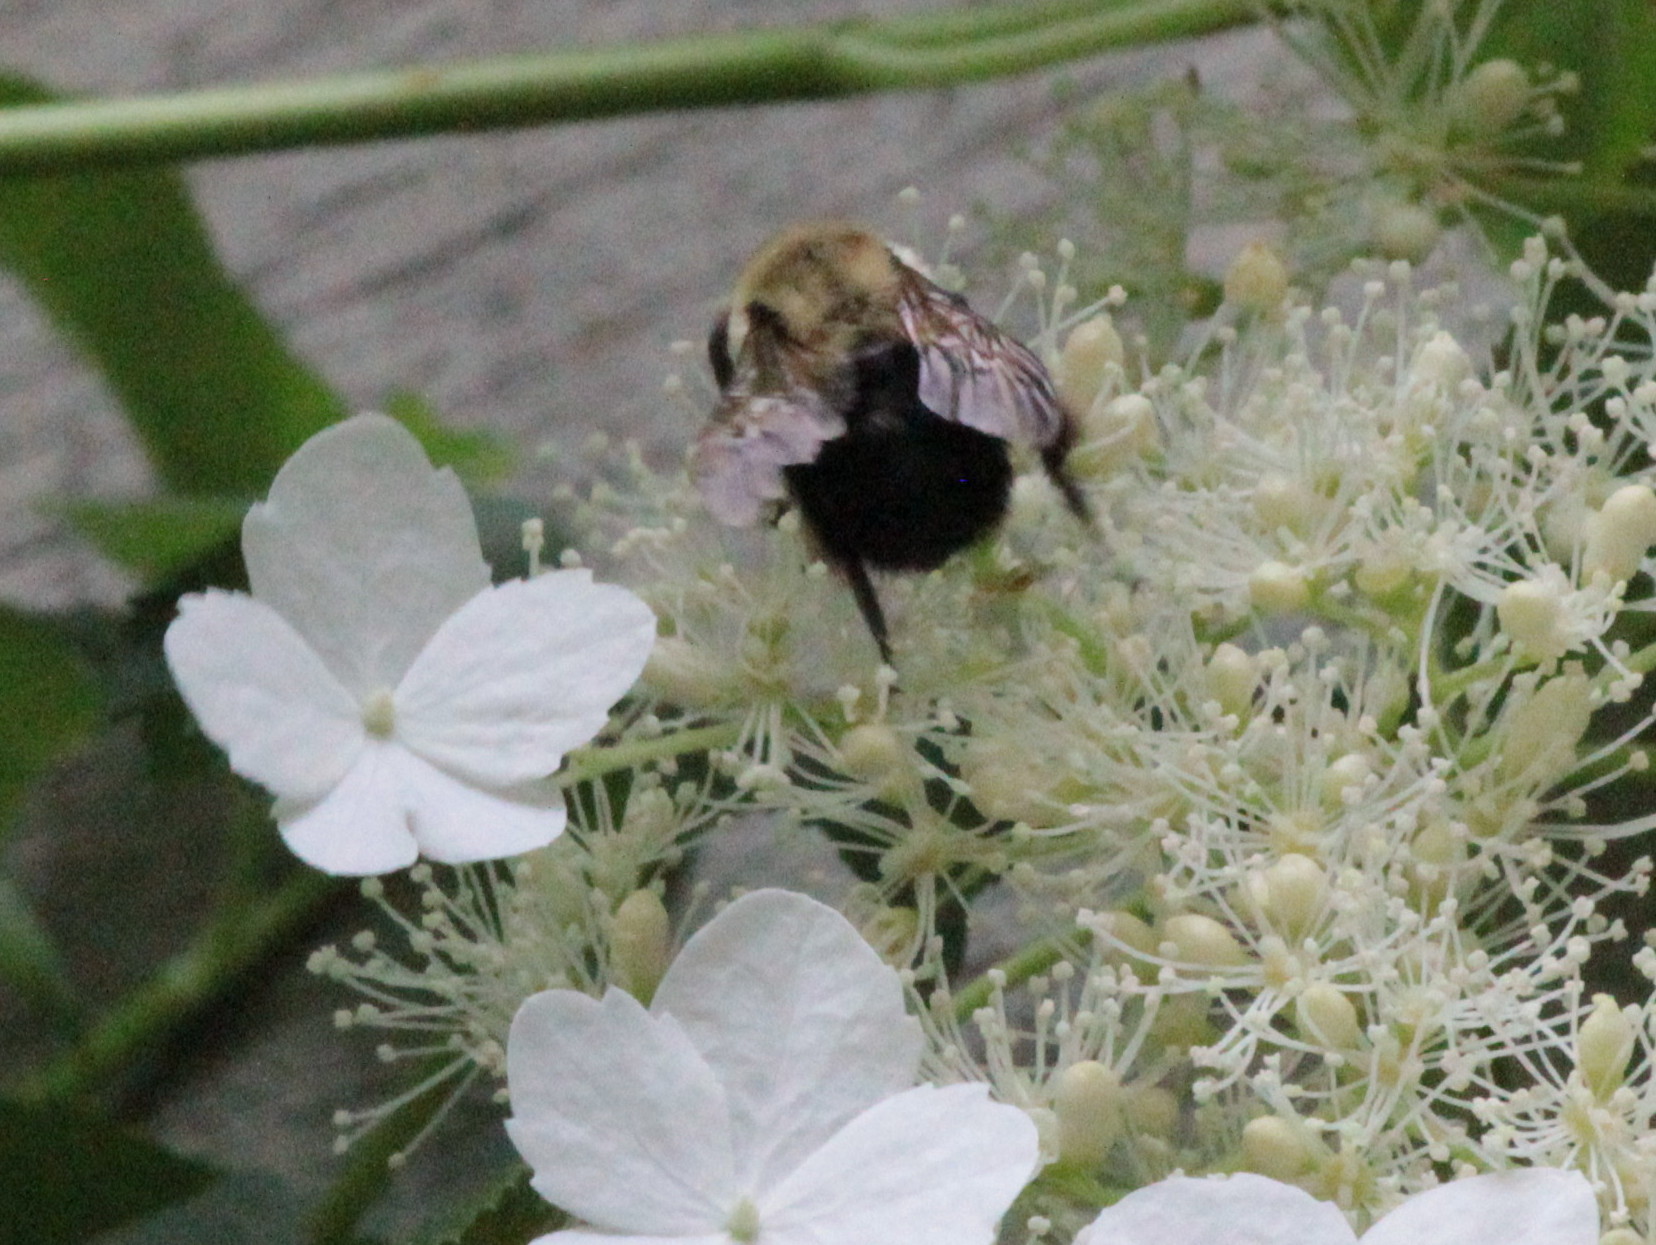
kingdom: Animalia
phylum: Arthropoda
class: Insecta
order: Hymenoptera
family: Apidae
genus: Bombus
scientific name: Bombus impatiens
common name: Common eastern bumble bee
